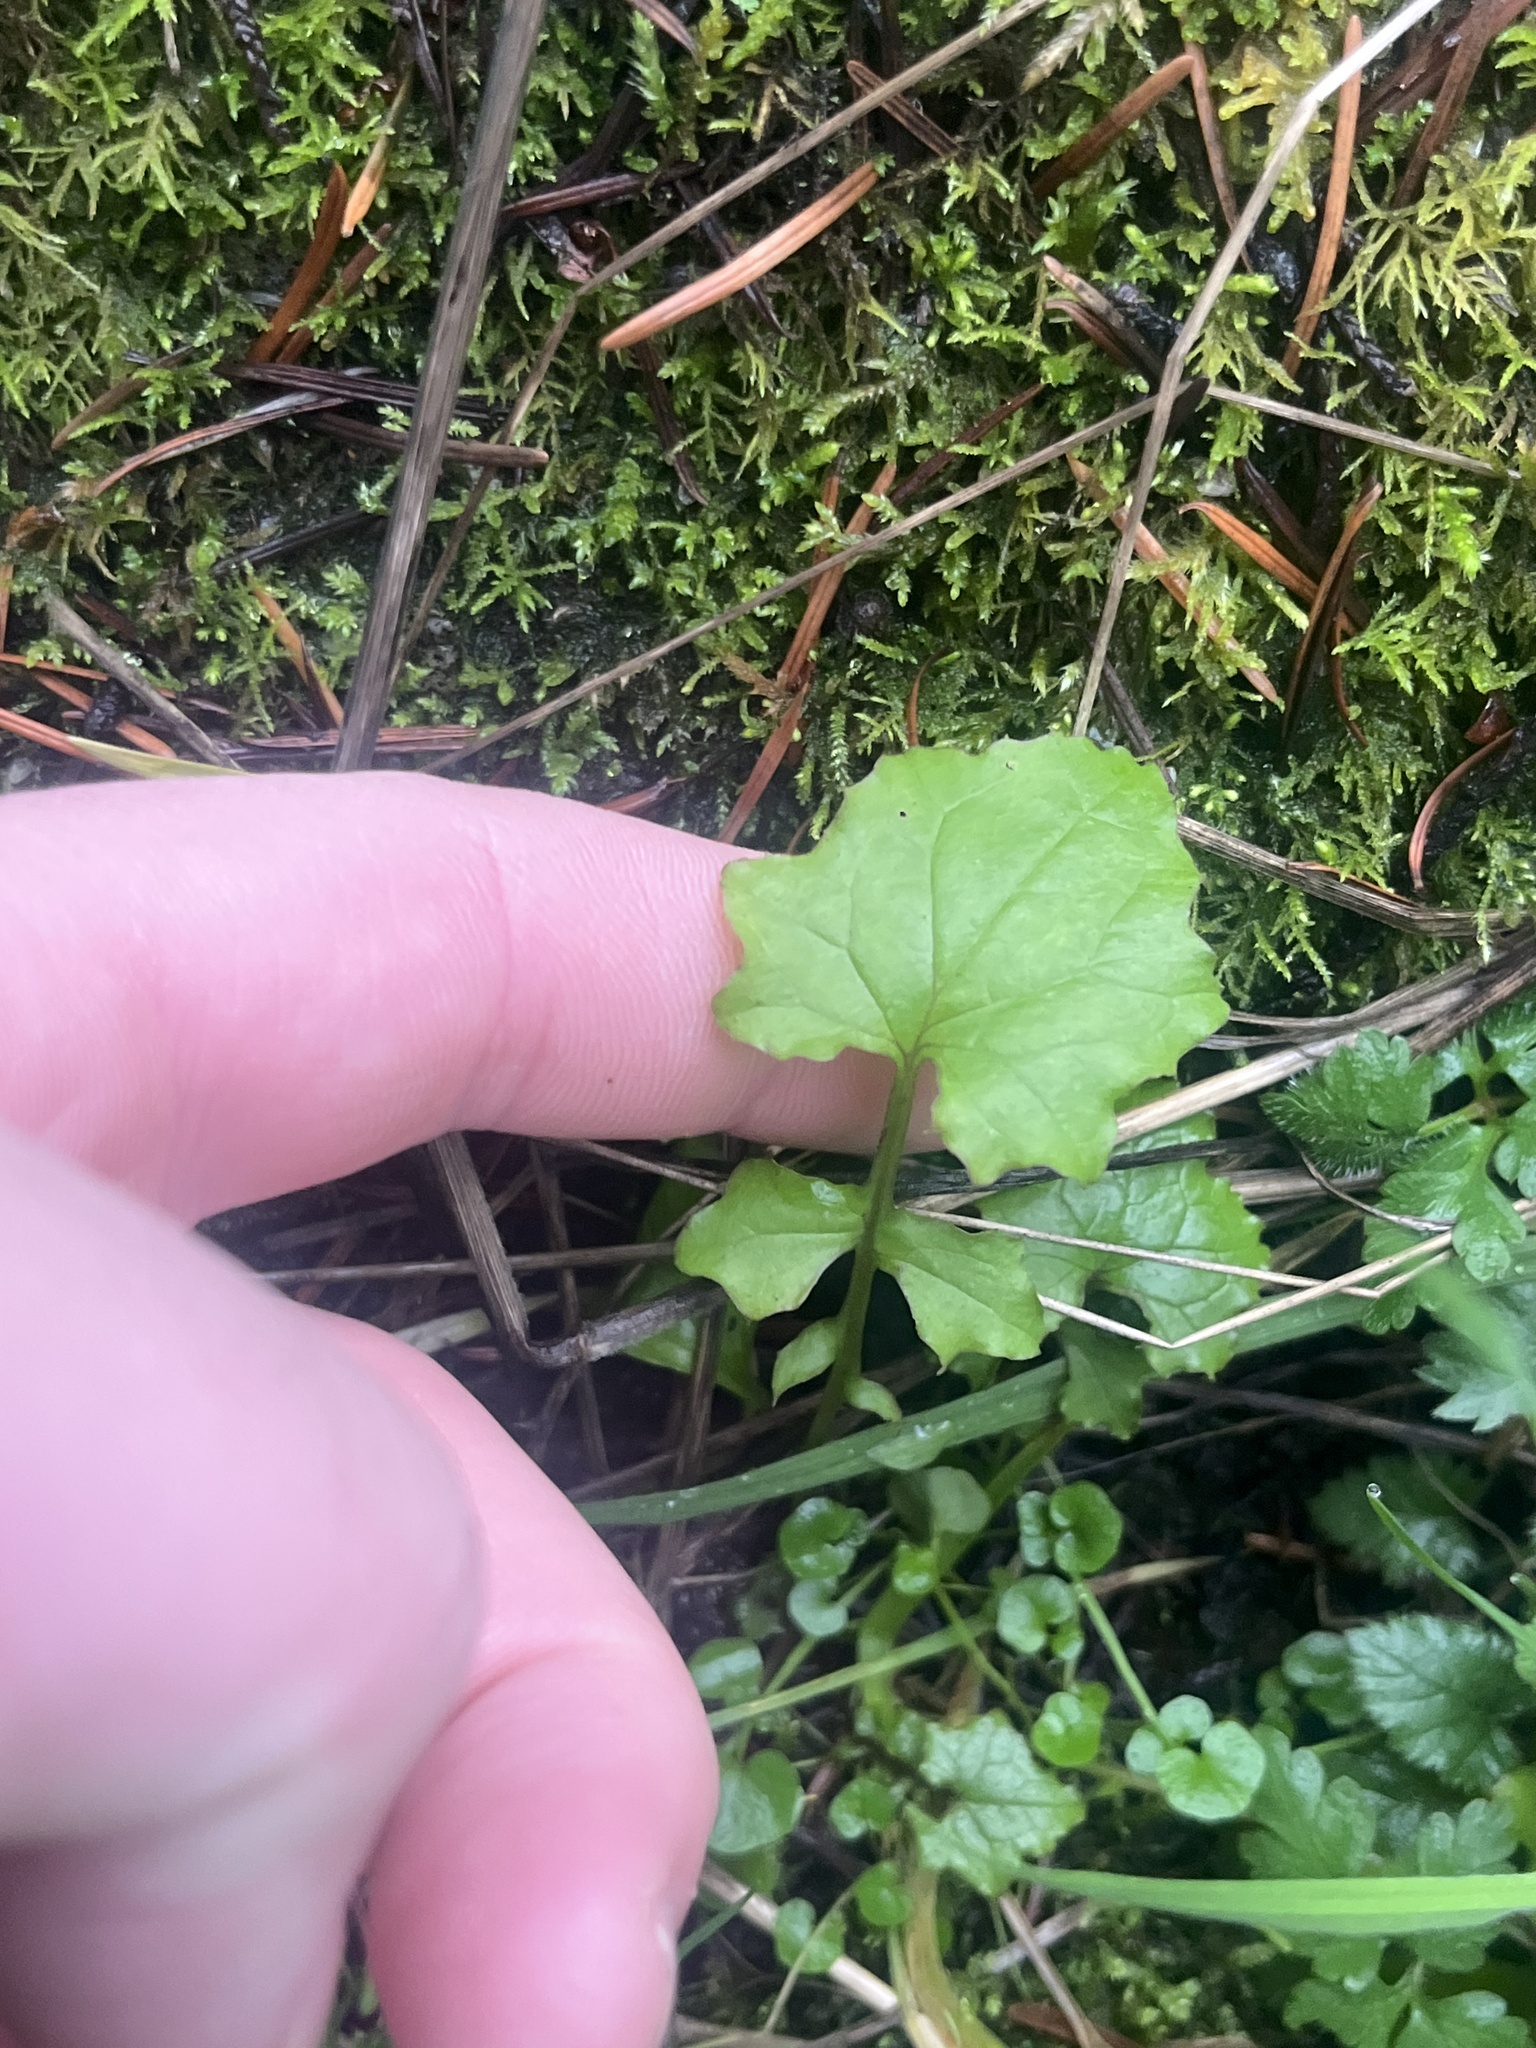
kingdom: Plantae
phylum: Tracheophyta
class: Magnoliopsida
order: Asterales
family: Asteraceae
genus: Mycelis
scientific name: Mycelis muralis
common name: Wall lettuce
